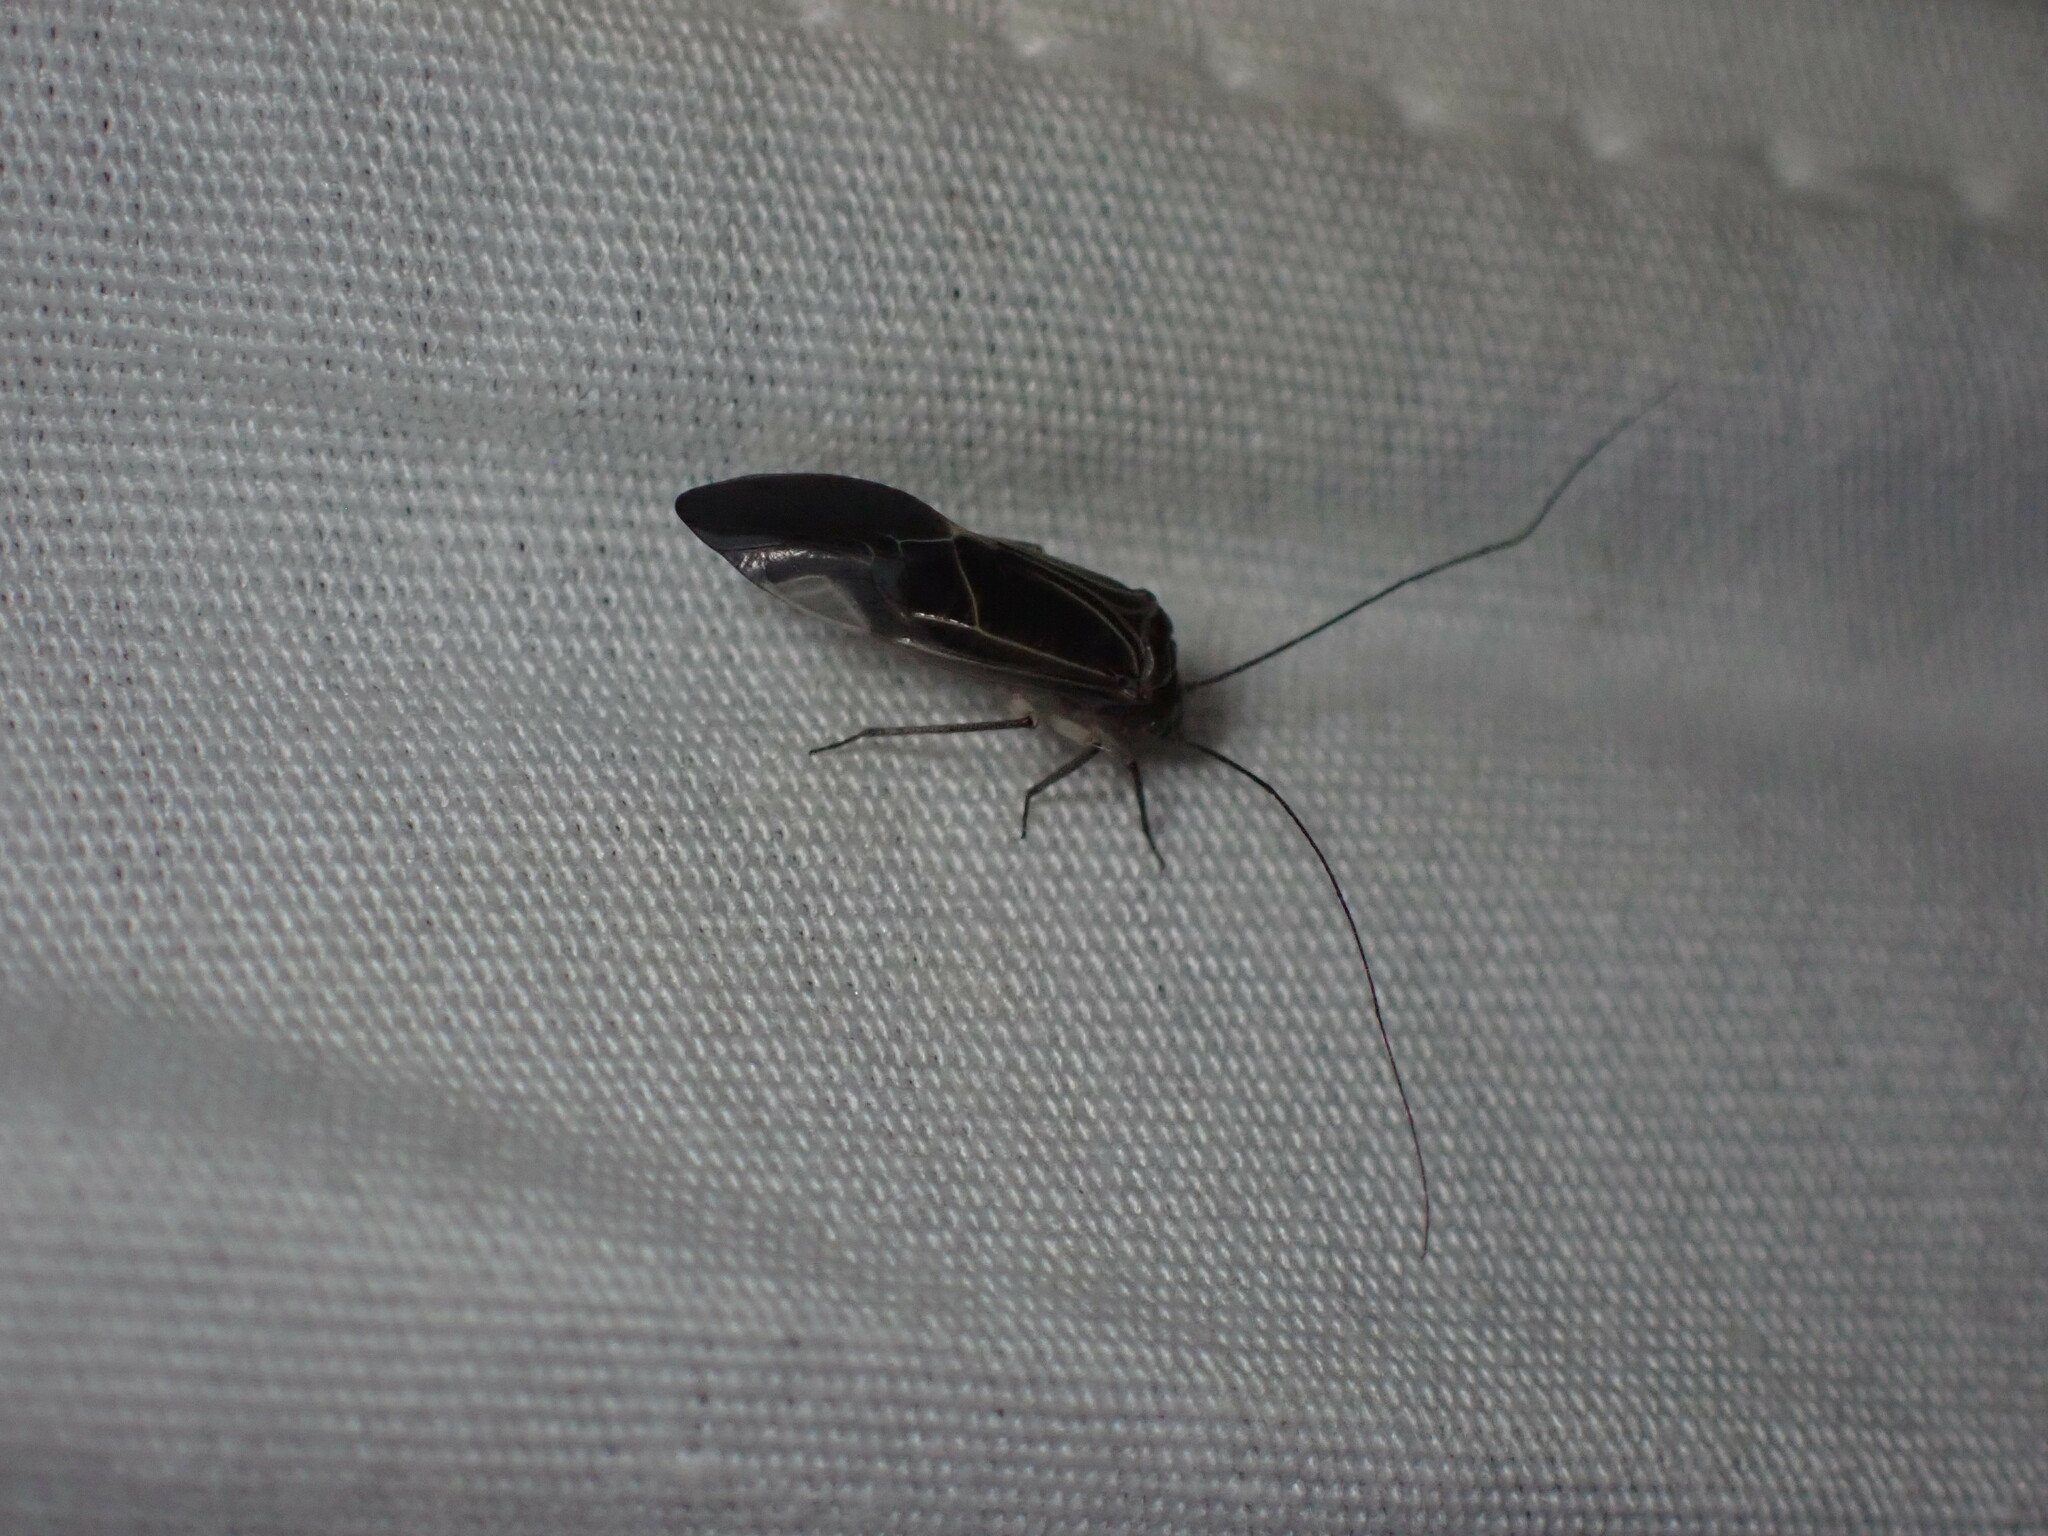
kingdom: Animalia
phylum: Arthropoda
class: Insecta
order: Psocodea
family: Psocidae
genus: Cerastipsocus
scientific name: Cerastipsocus venosus
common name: Tree cattle
